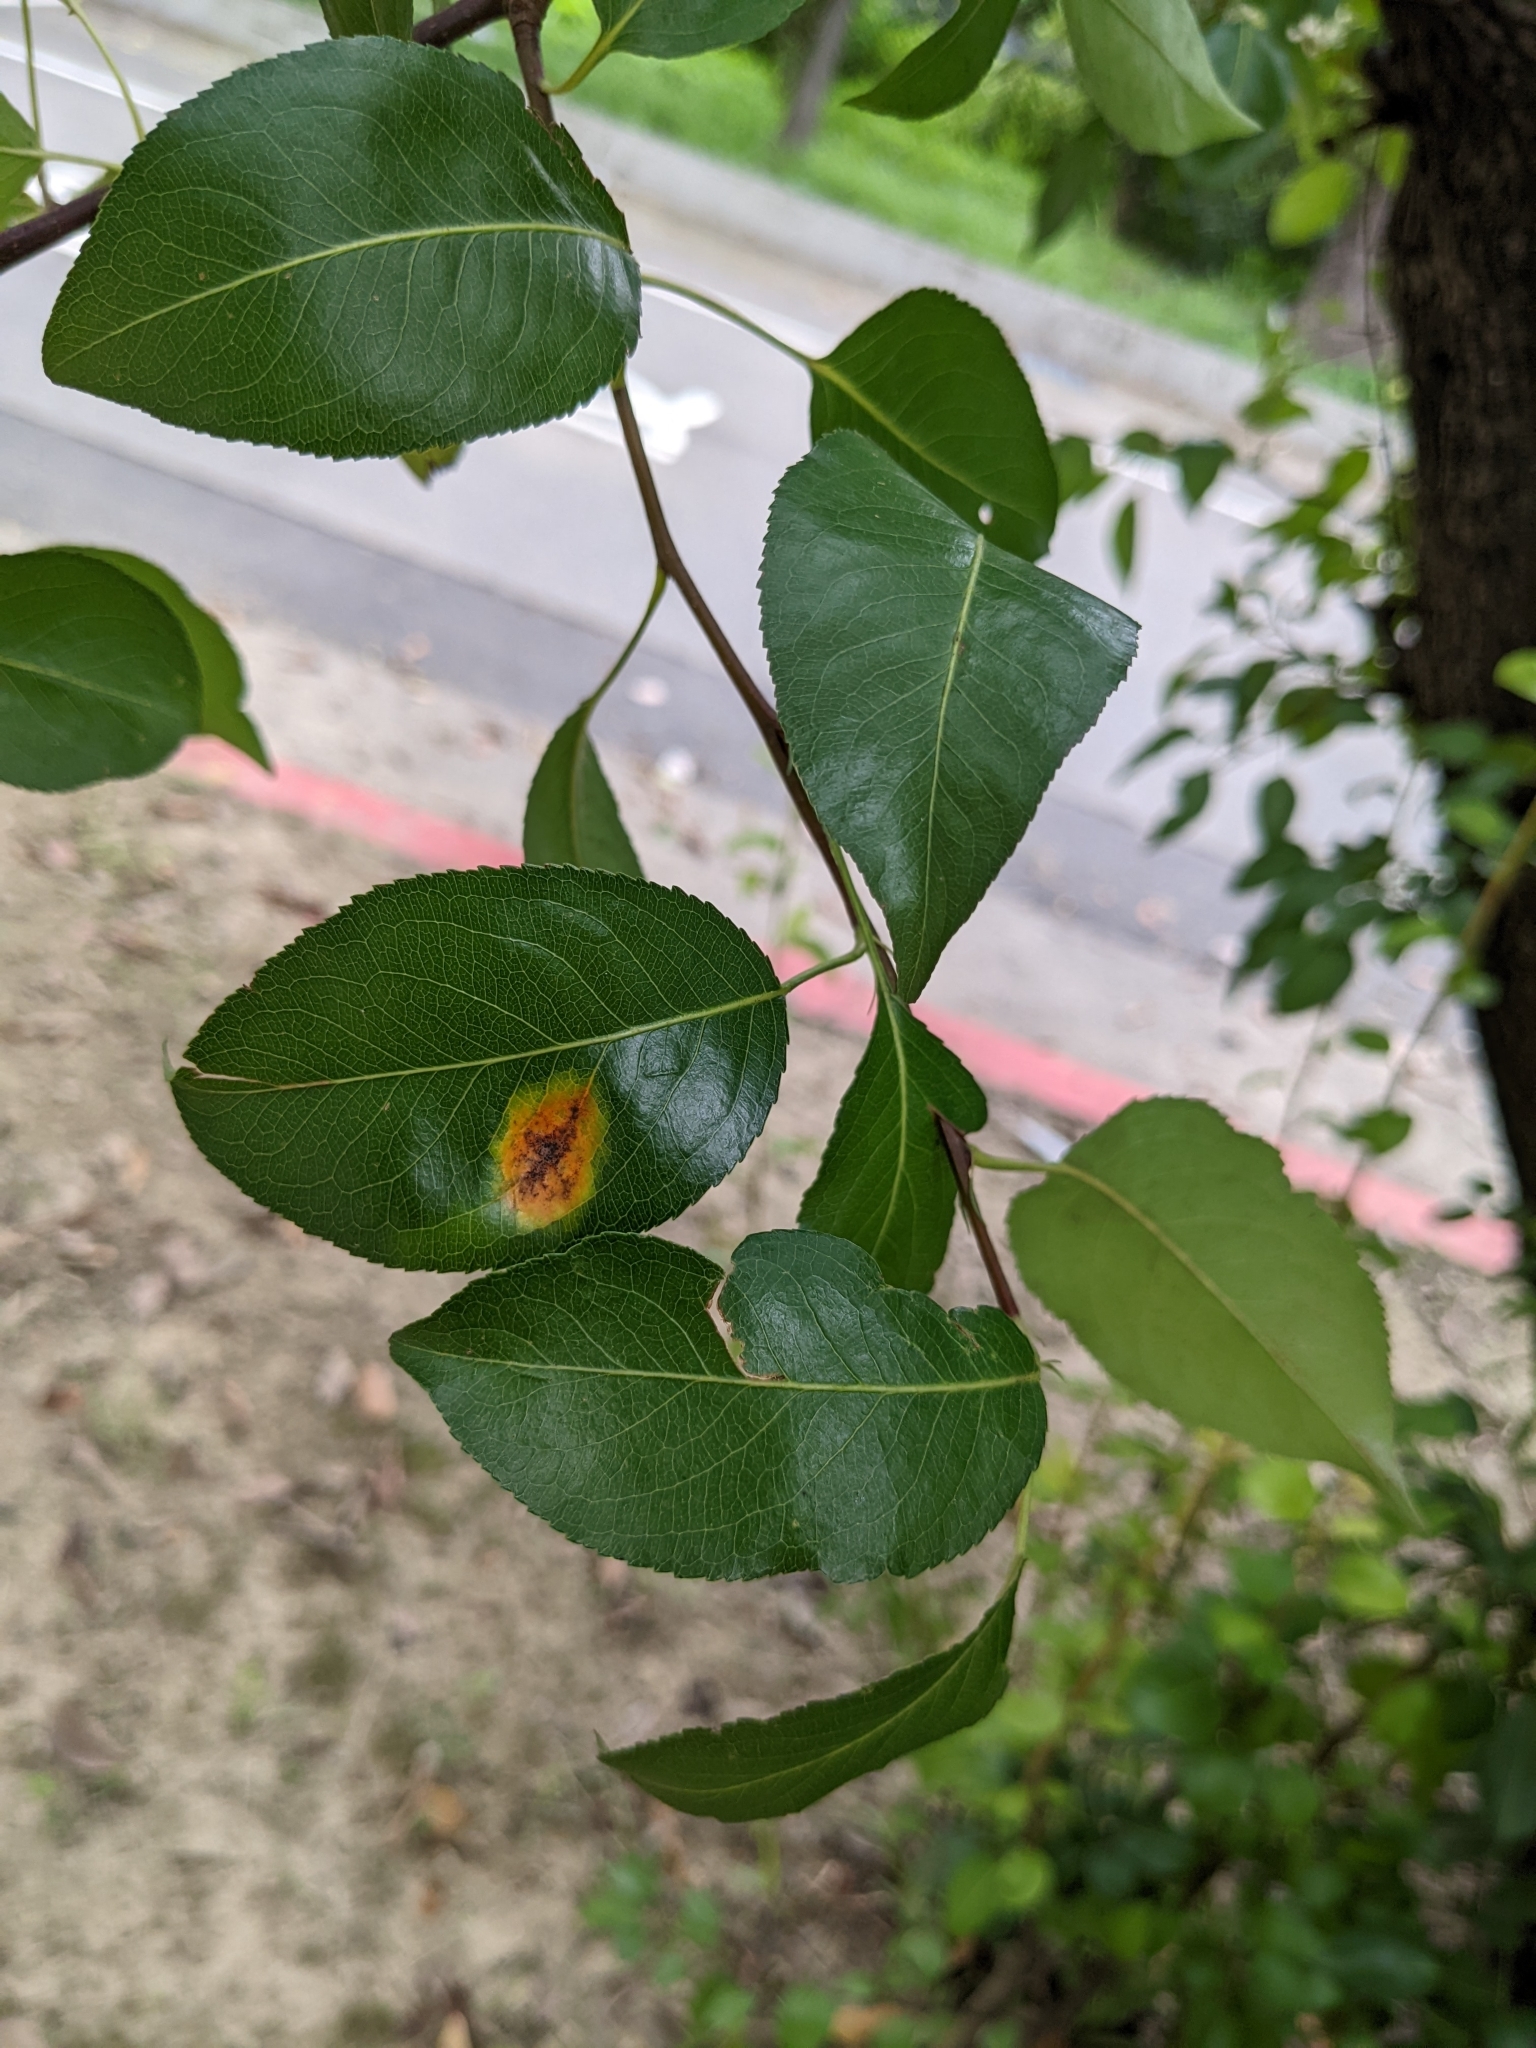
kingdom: Fungi
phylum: Basidiomycota
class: Pucciniomycetes
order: Pucciniales
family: Gymnosporangiaceae
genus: Gymnosporangium
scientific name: Gymnosporangium asiaticum
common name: Japanese pear rust
